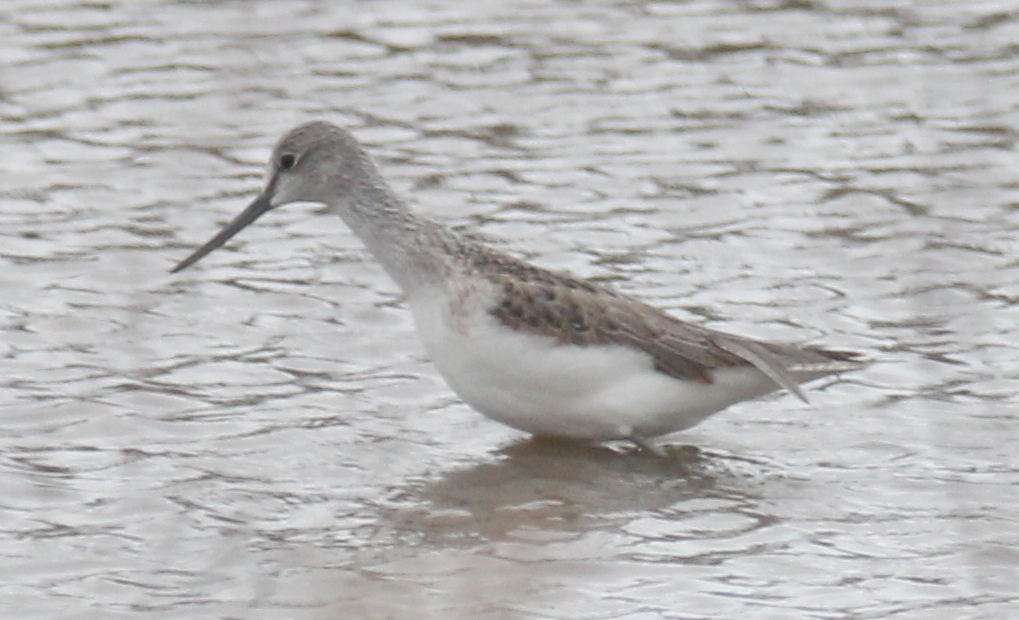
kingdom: Animalia
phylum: Chordata
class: Aves
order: Charadriiformes
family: Scolopacidae
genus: Tringa
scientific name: Tringa nebularia
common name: Common greenshank
